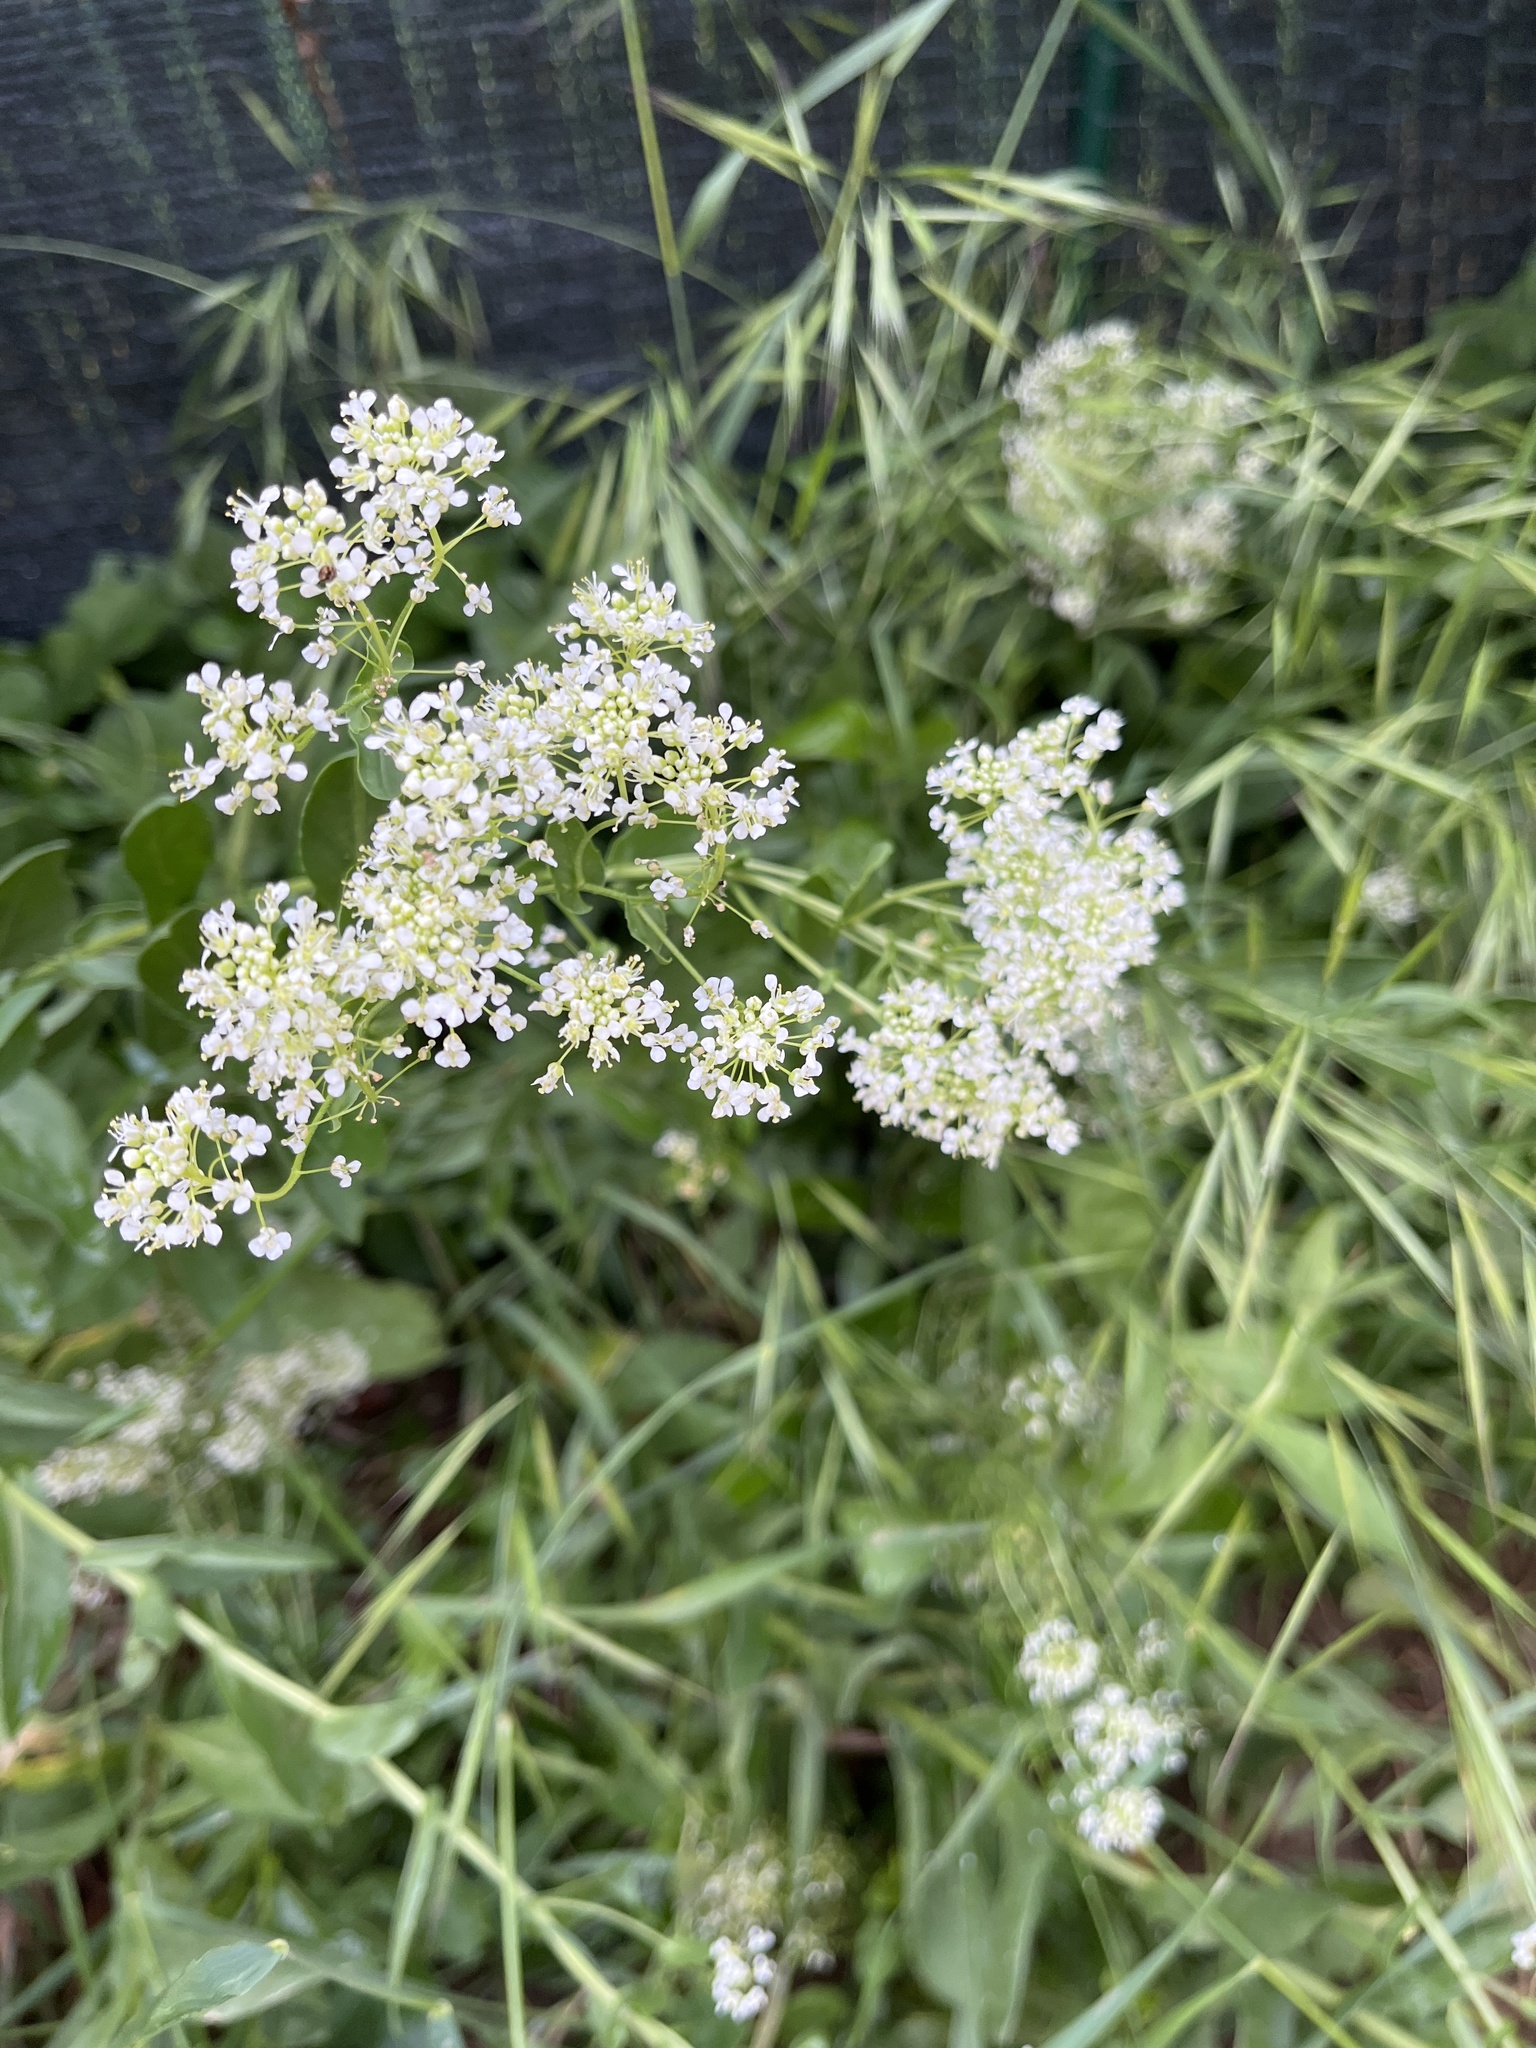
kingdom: Plantae
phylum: Tracheophyta
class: Magnoliopsida
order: Brassicales
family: Brassicaceae
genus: Lepidium
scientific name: Lepidium draba
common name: Hoary cress
